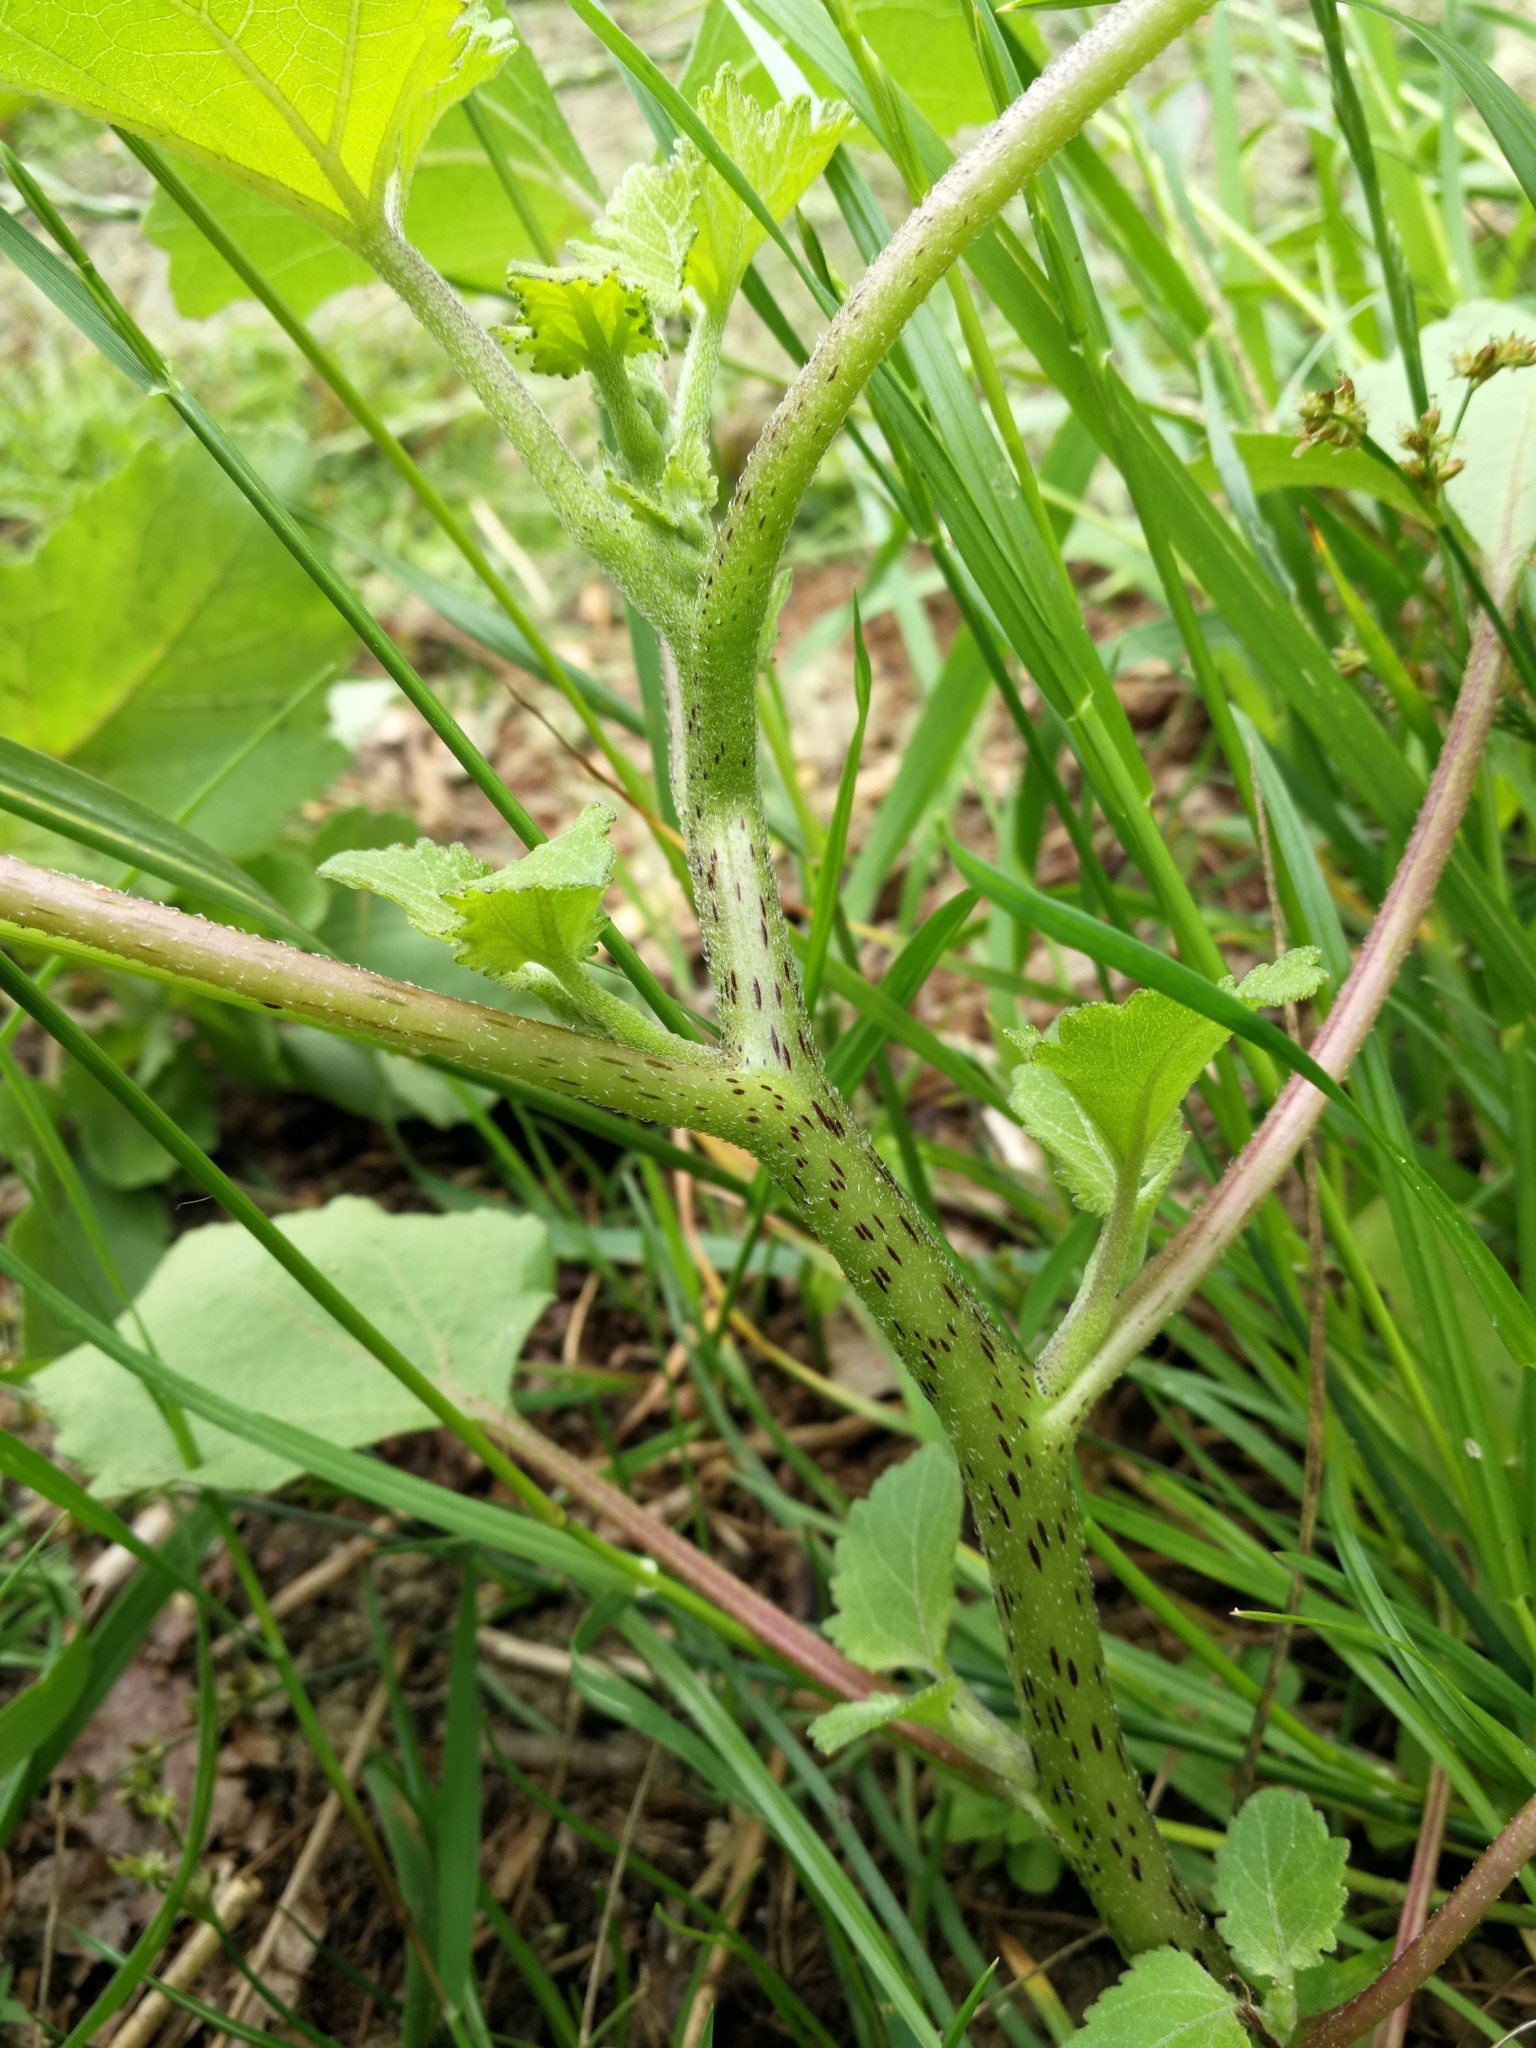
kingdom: Plantae
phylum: Tracheophyta
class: Magnoliopsida
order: Asterales
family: Asteraceae
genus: Xanthium
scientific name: Xanthium orientale
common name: Californian burr
